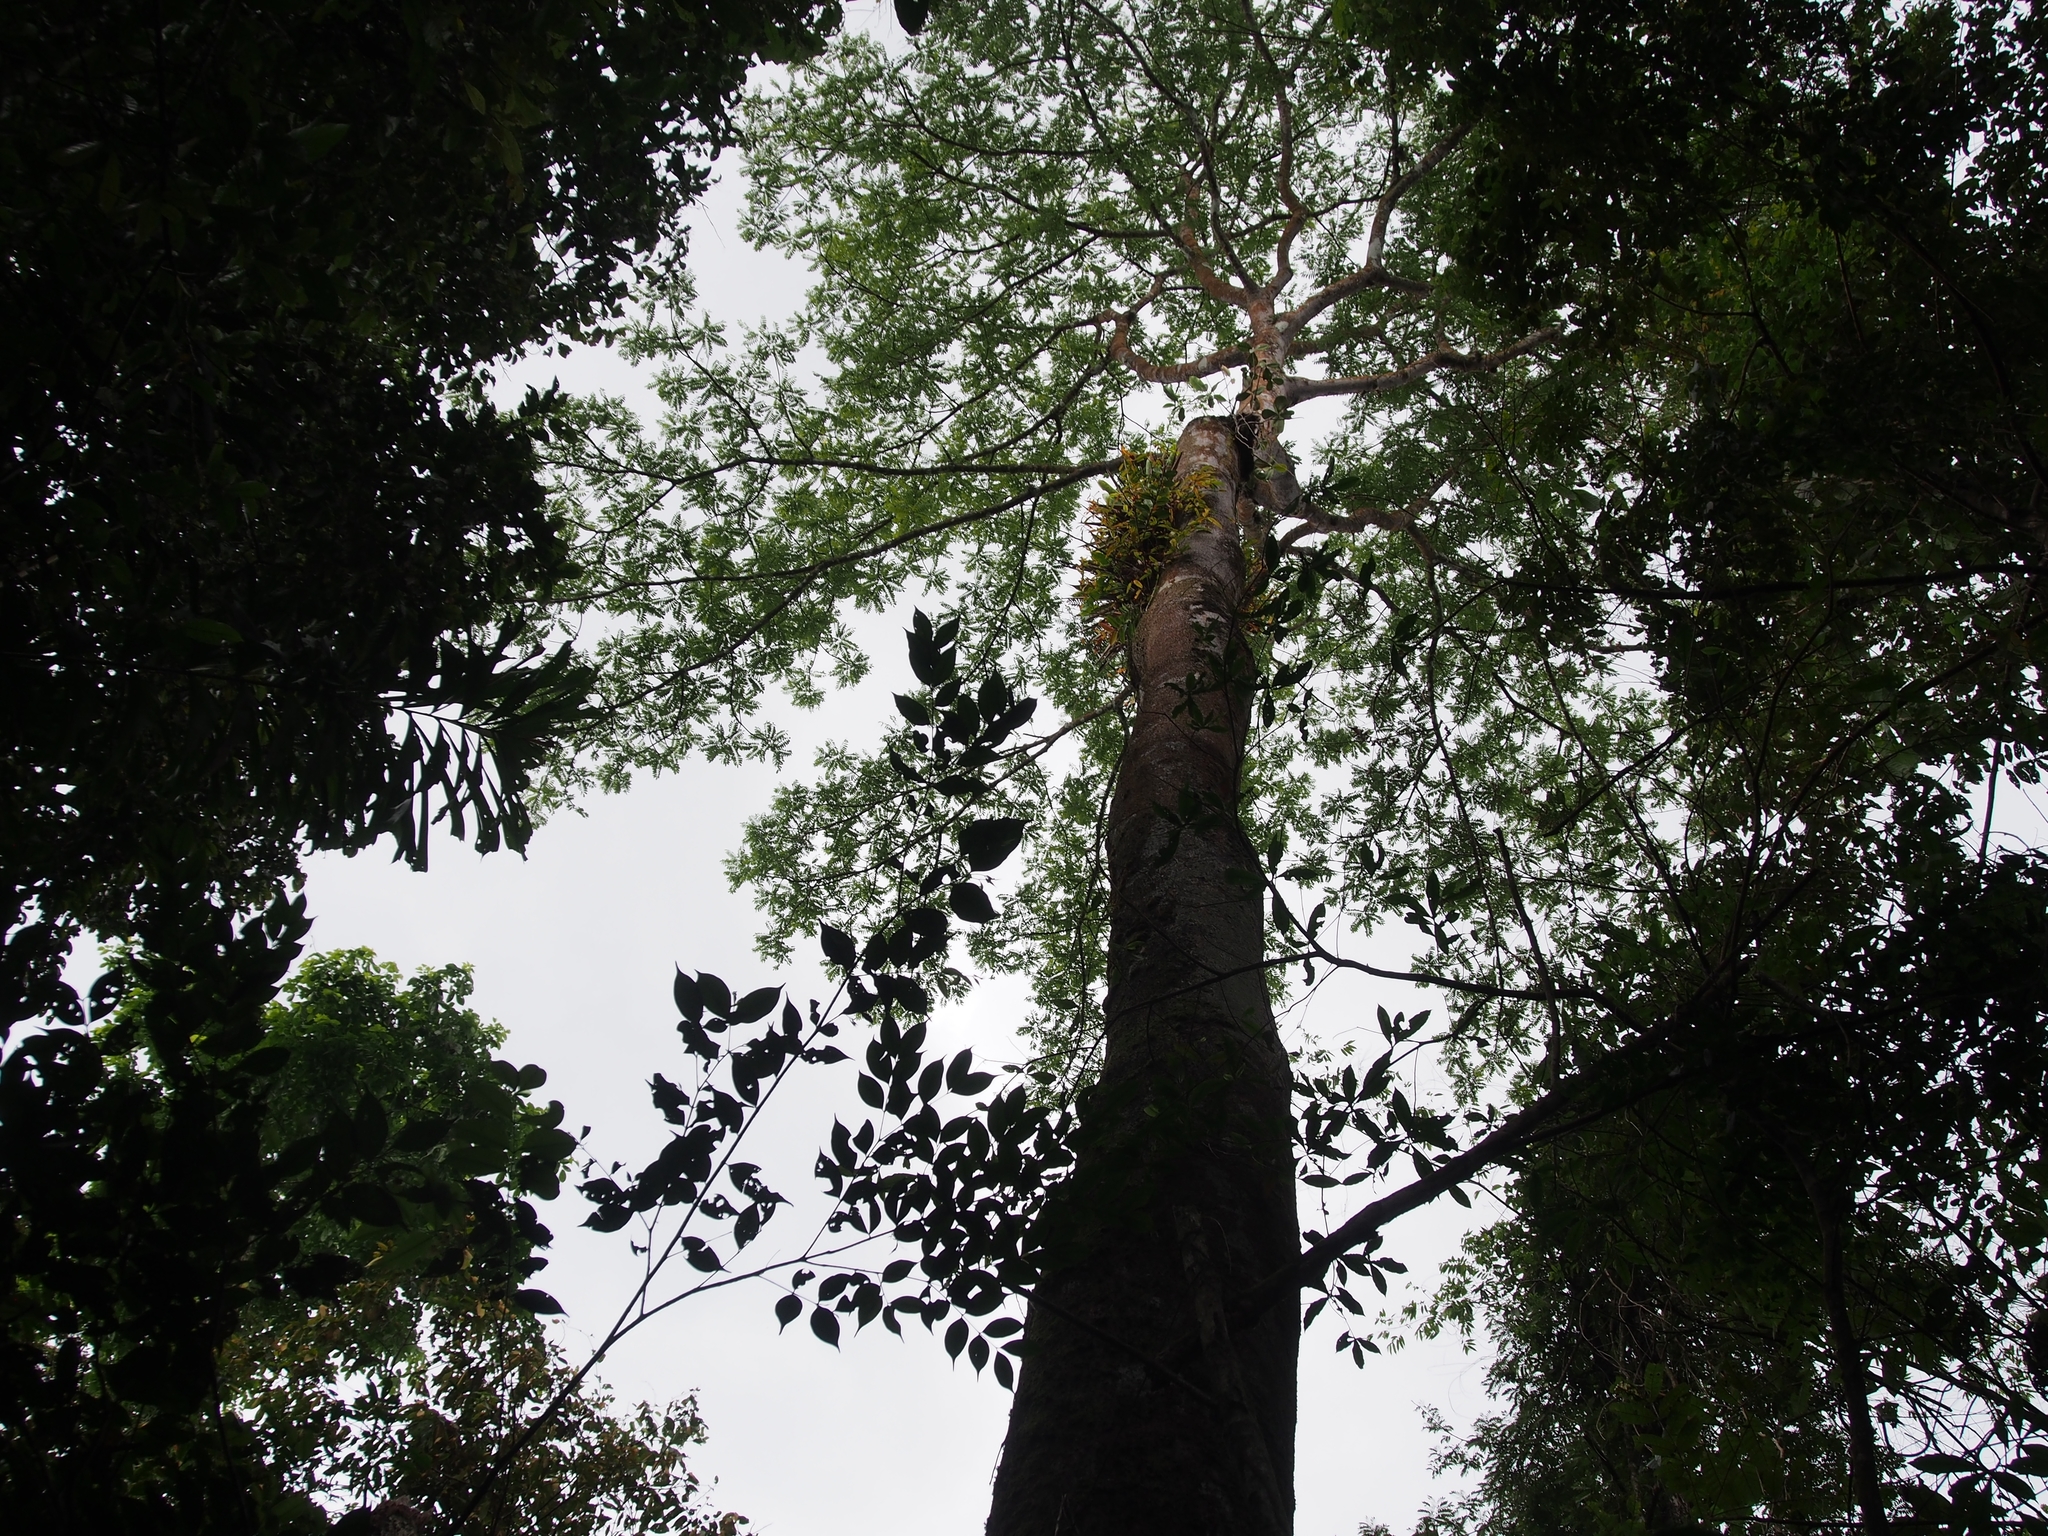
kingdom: Plantae
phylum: Tracheophyta
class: Magnoliopsida
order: Fabales
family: Fabaceae
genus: Hymenolobium
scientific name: Hymenolobium mesoamericanum
